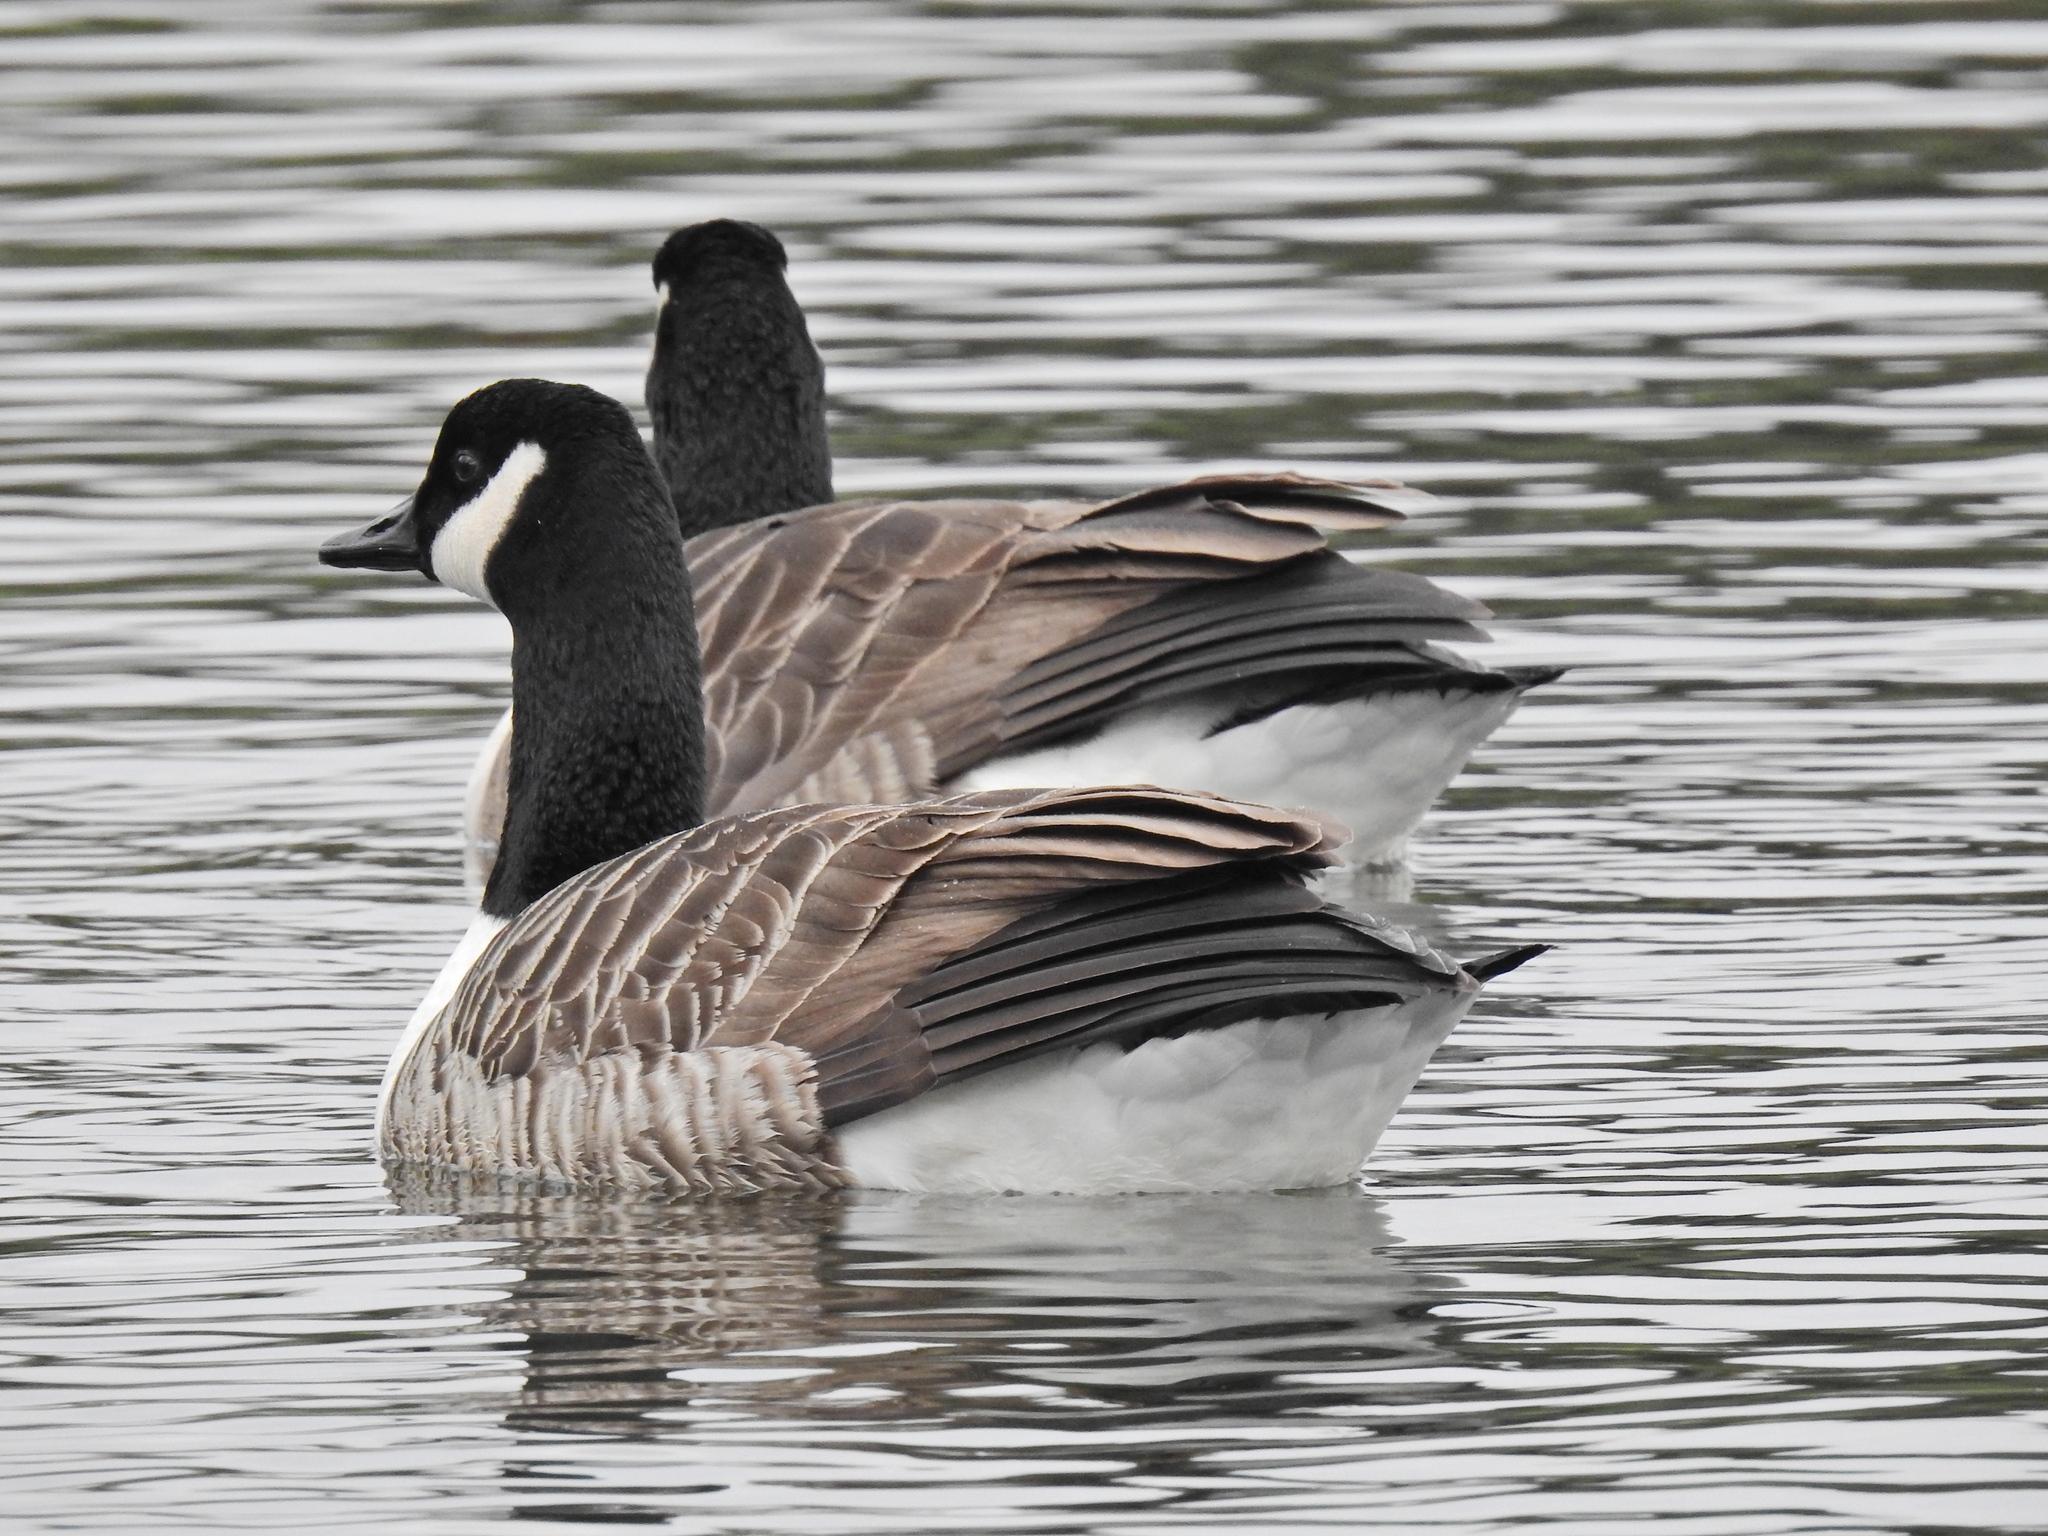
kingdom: Animalia
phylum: Chordata
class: Aves
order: Anseriformes
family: Anatidae
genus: Branta
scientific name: Branta canadensis
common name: Canada goose
